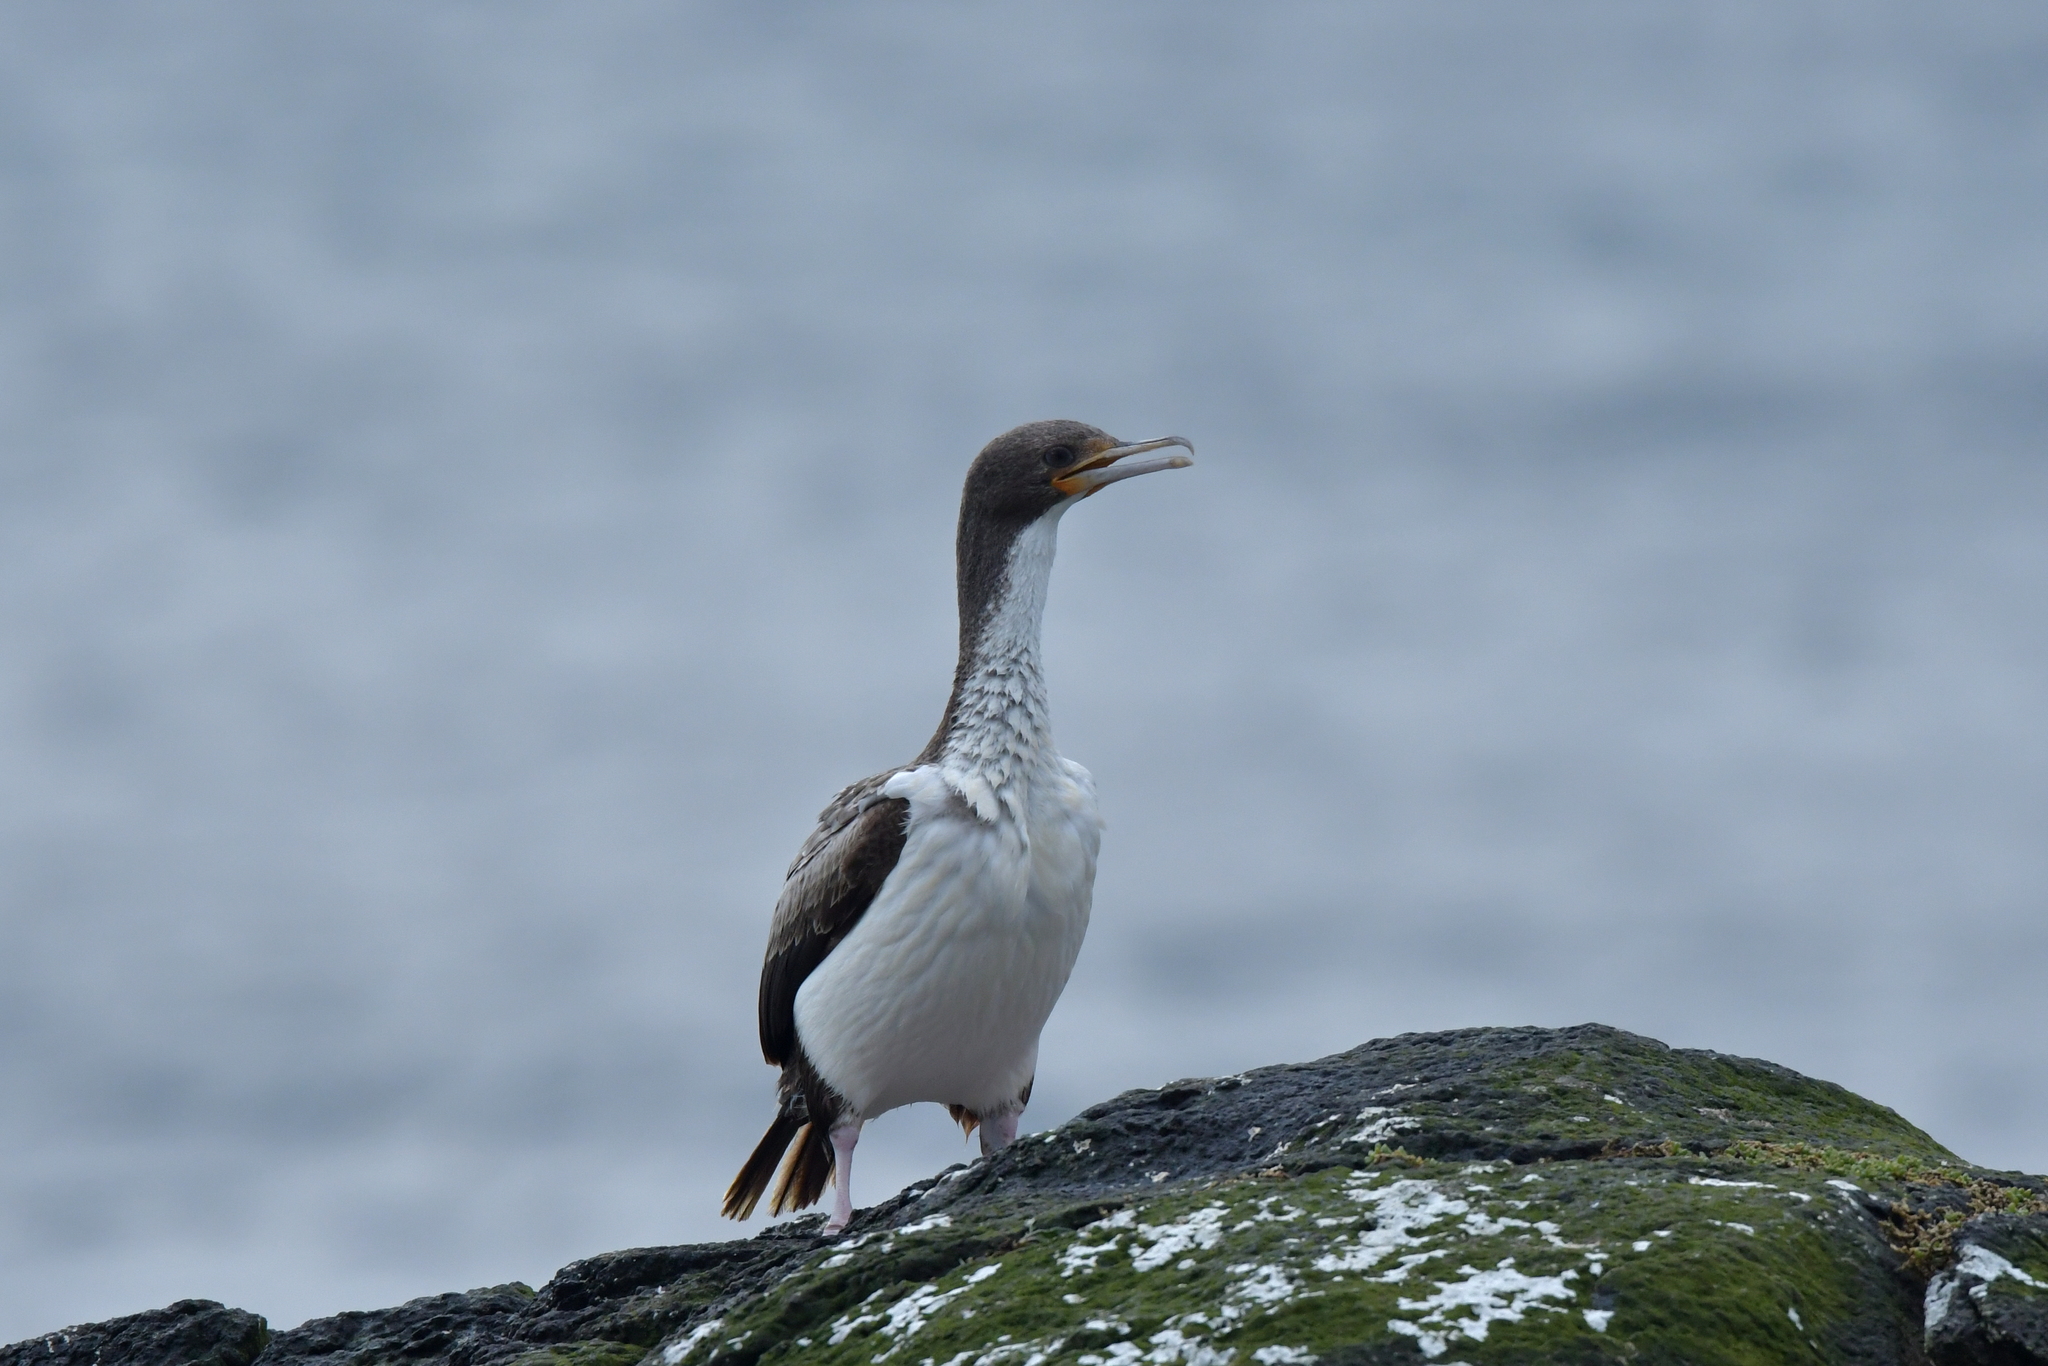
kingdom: Animalia
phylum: Chordata
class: Aves
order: Suliformes
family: Phalacrocoracidae
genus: Leucocarbo
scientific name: Leucocarbo onslowi
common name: Chatham shag
